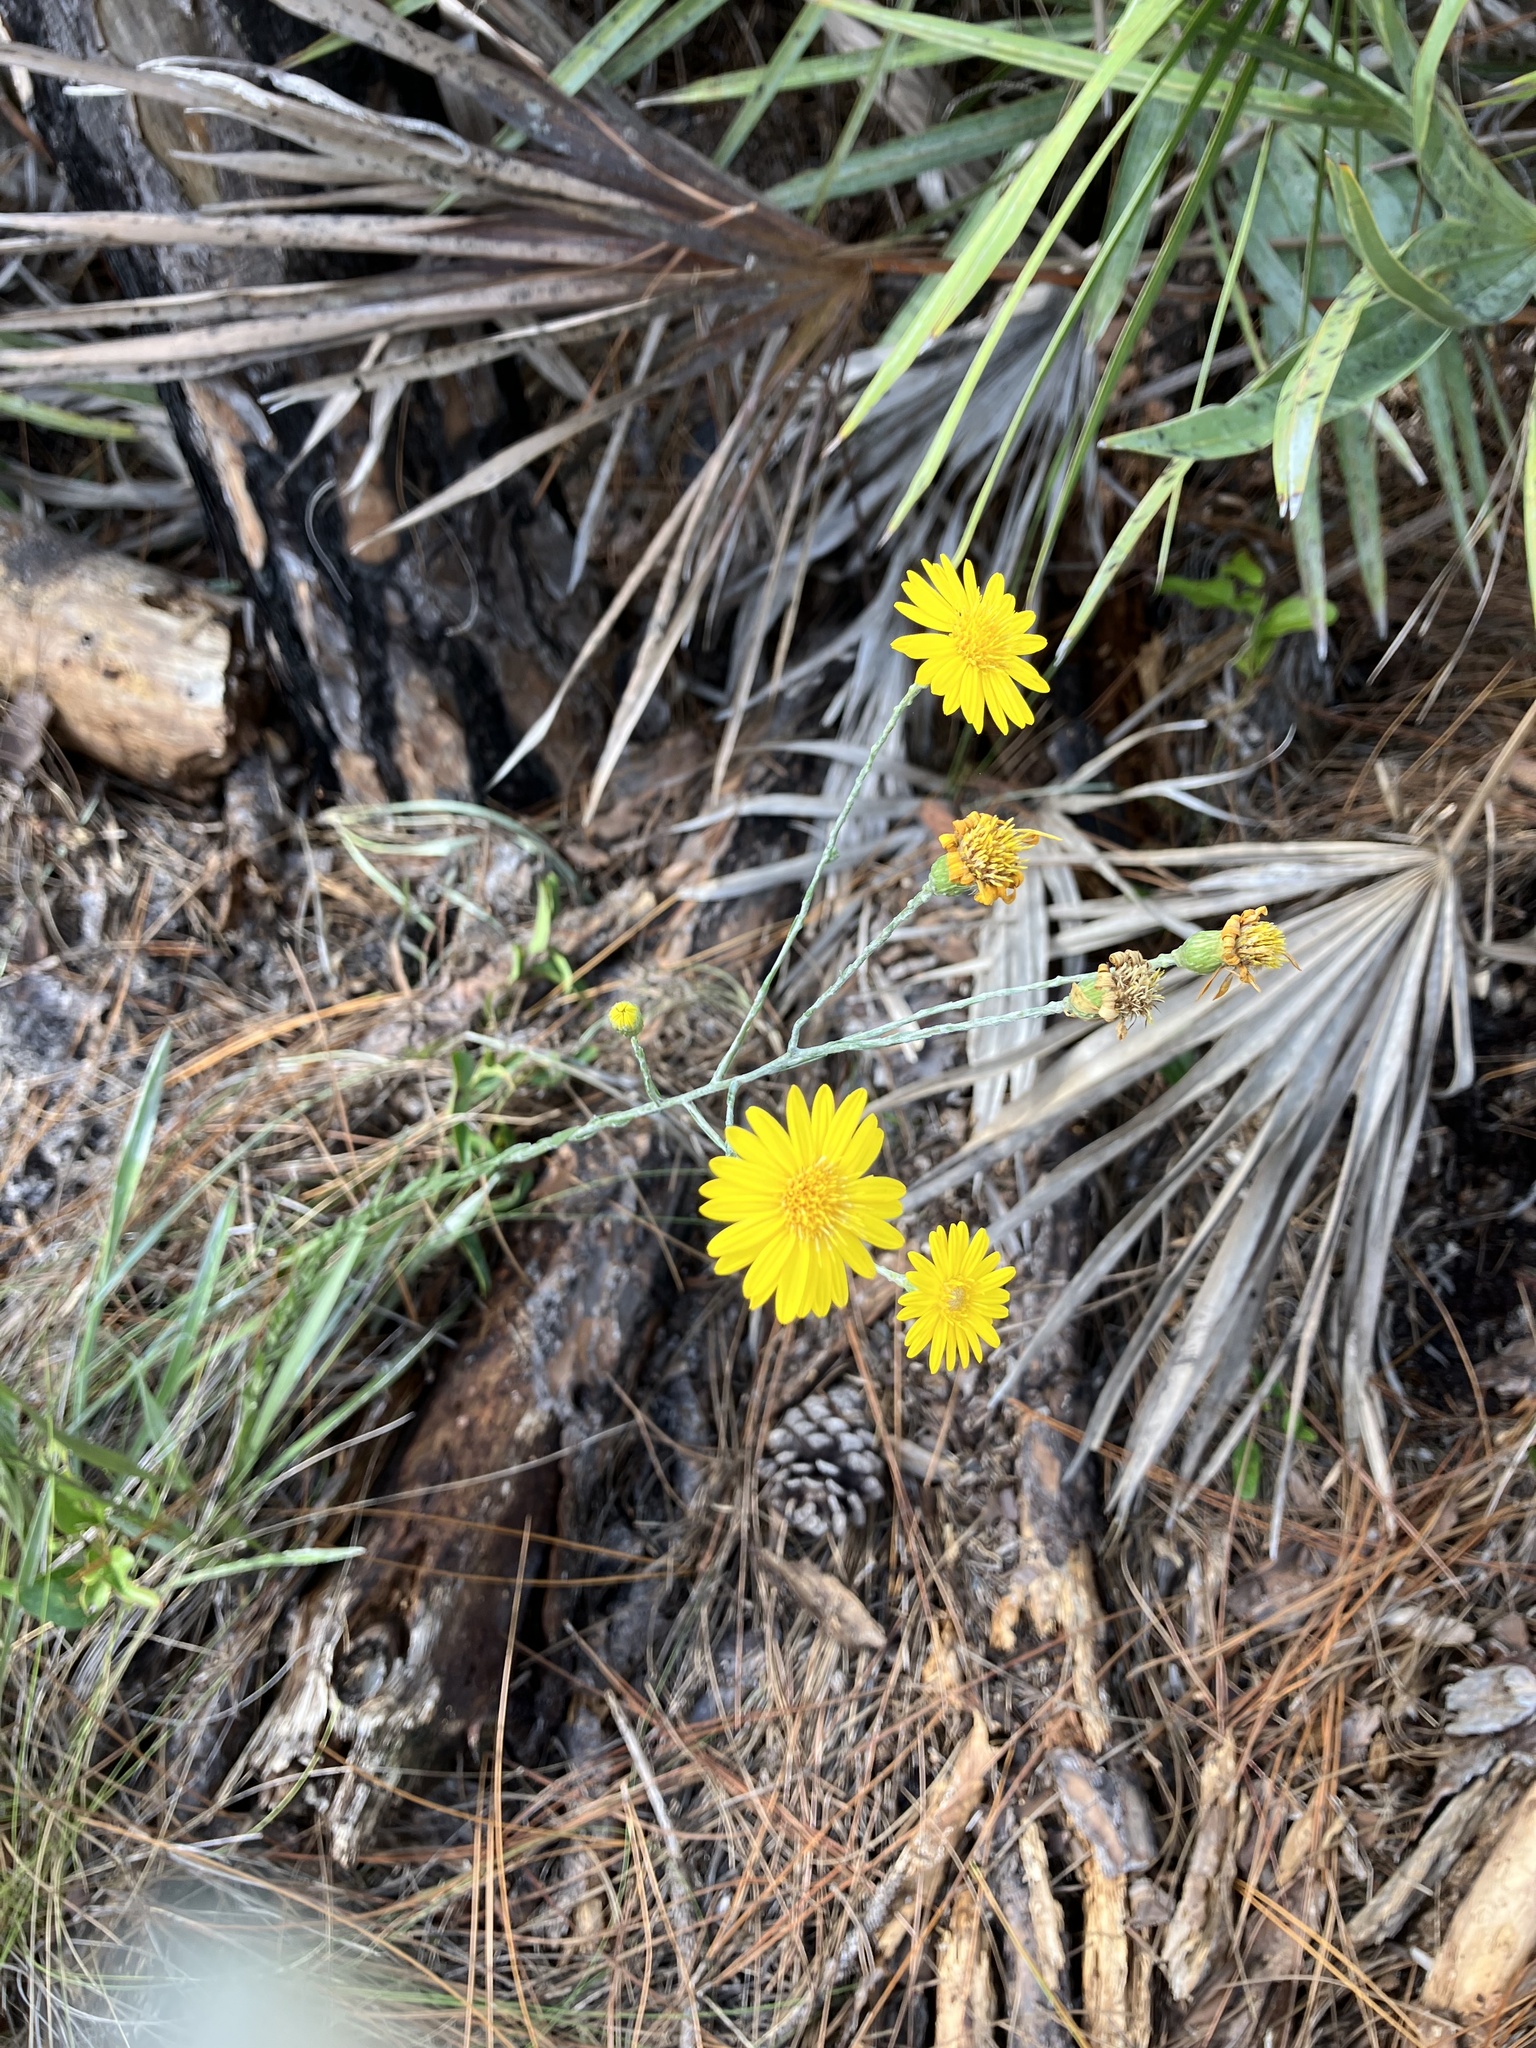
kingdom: Plantae
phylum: Tracheophyta
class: Magnoliopsida
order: Asterales
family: Asteraceae
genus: Pityopsis
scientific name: Pityopsis tracyi
